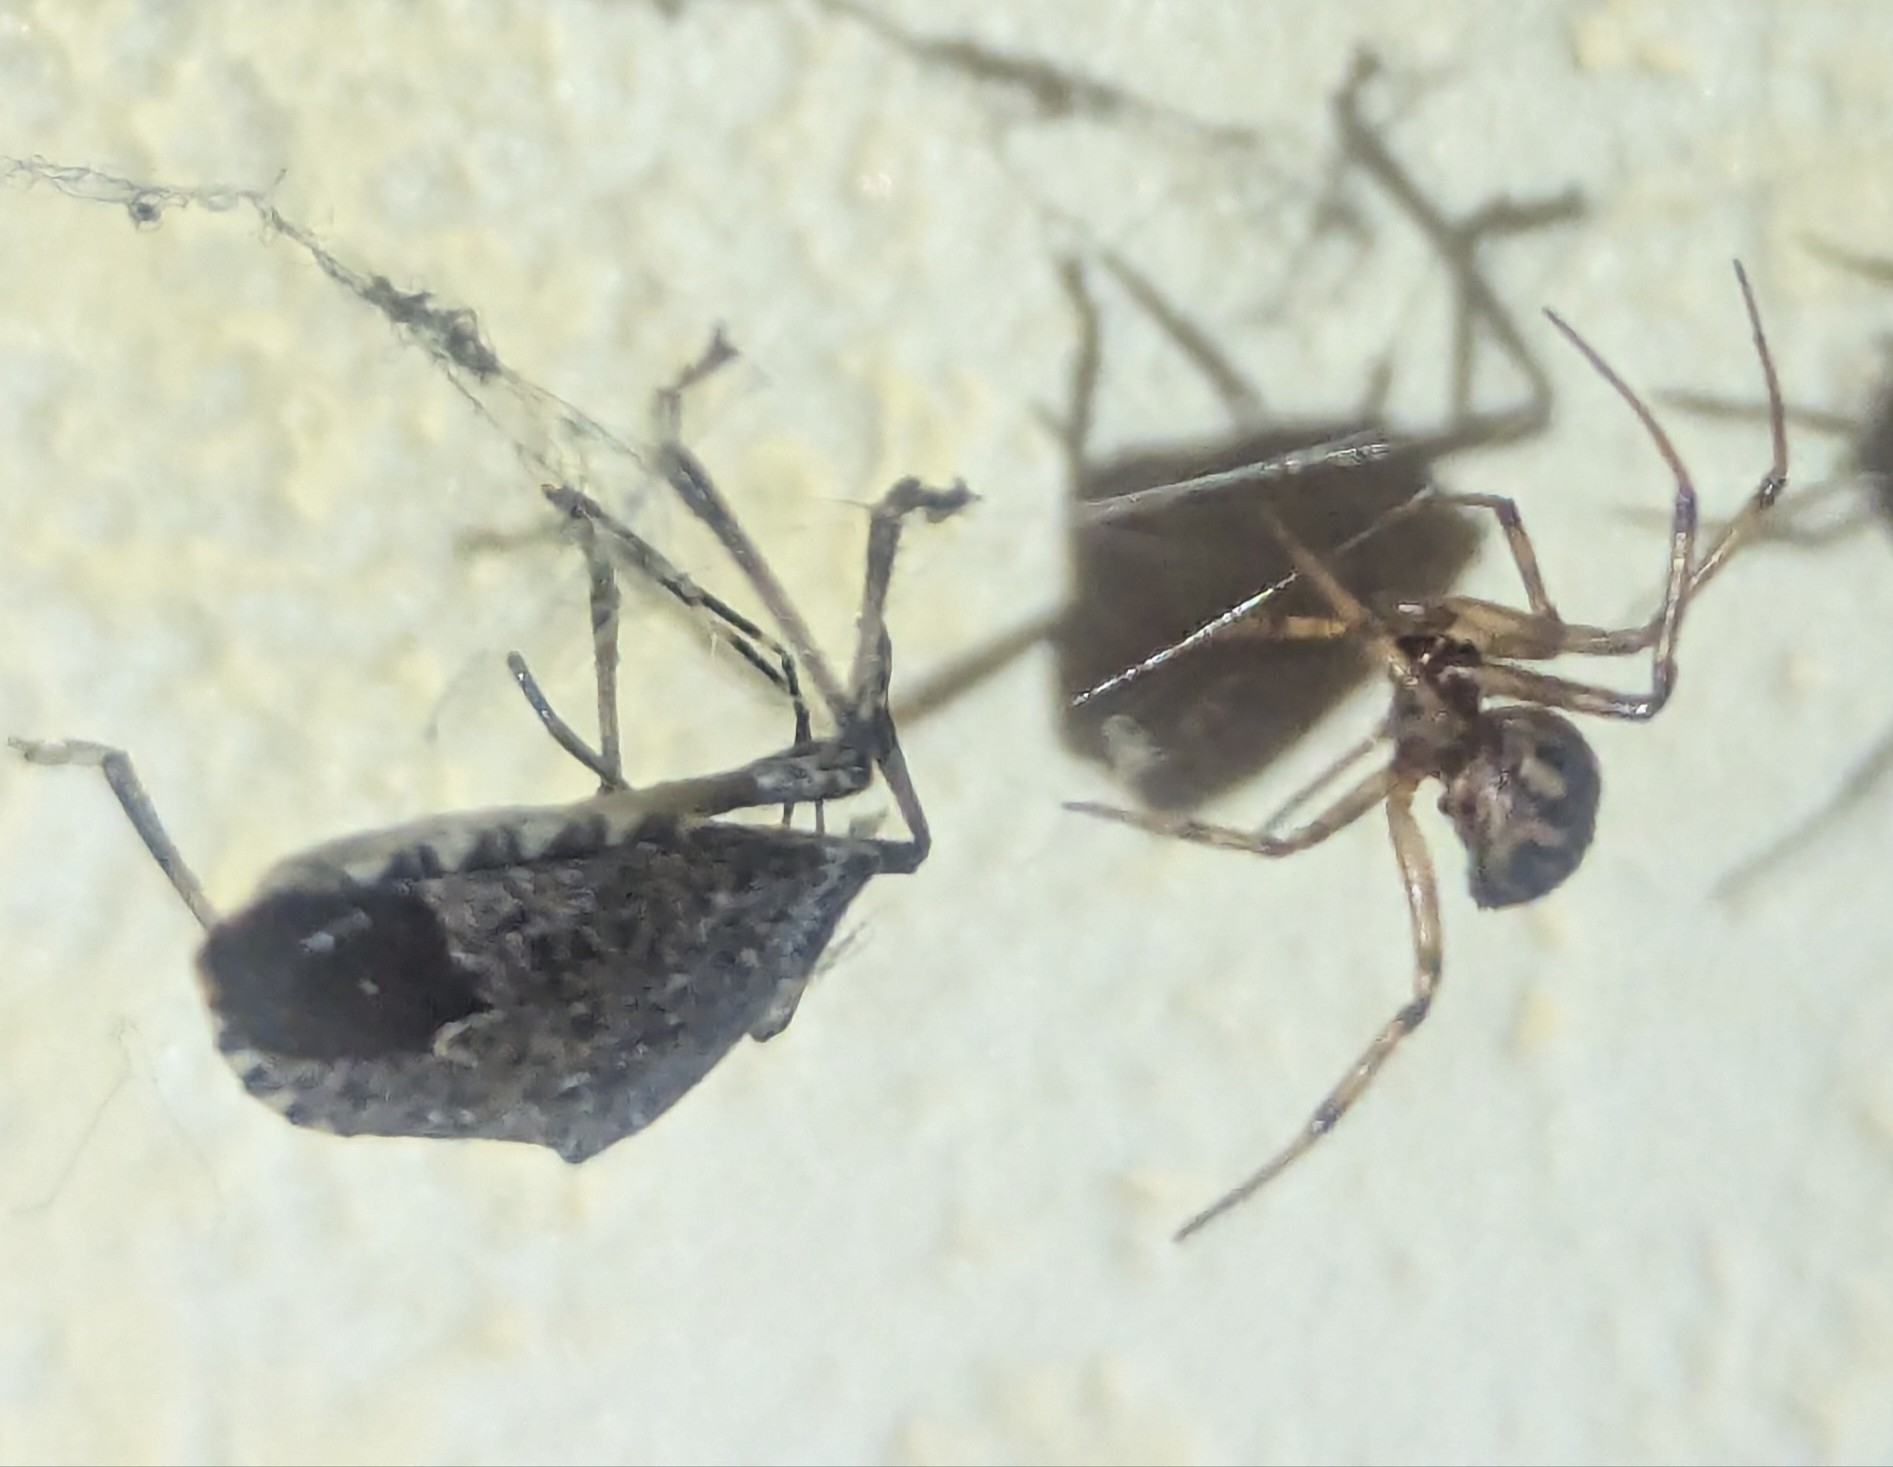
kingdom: Animalia
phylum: Arthropoda
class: Insecta
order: Hemiptera
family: Pentatomidae
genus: Halyomorpha
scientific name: Halyomorpha halys
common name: Brown marmorated stink bug
